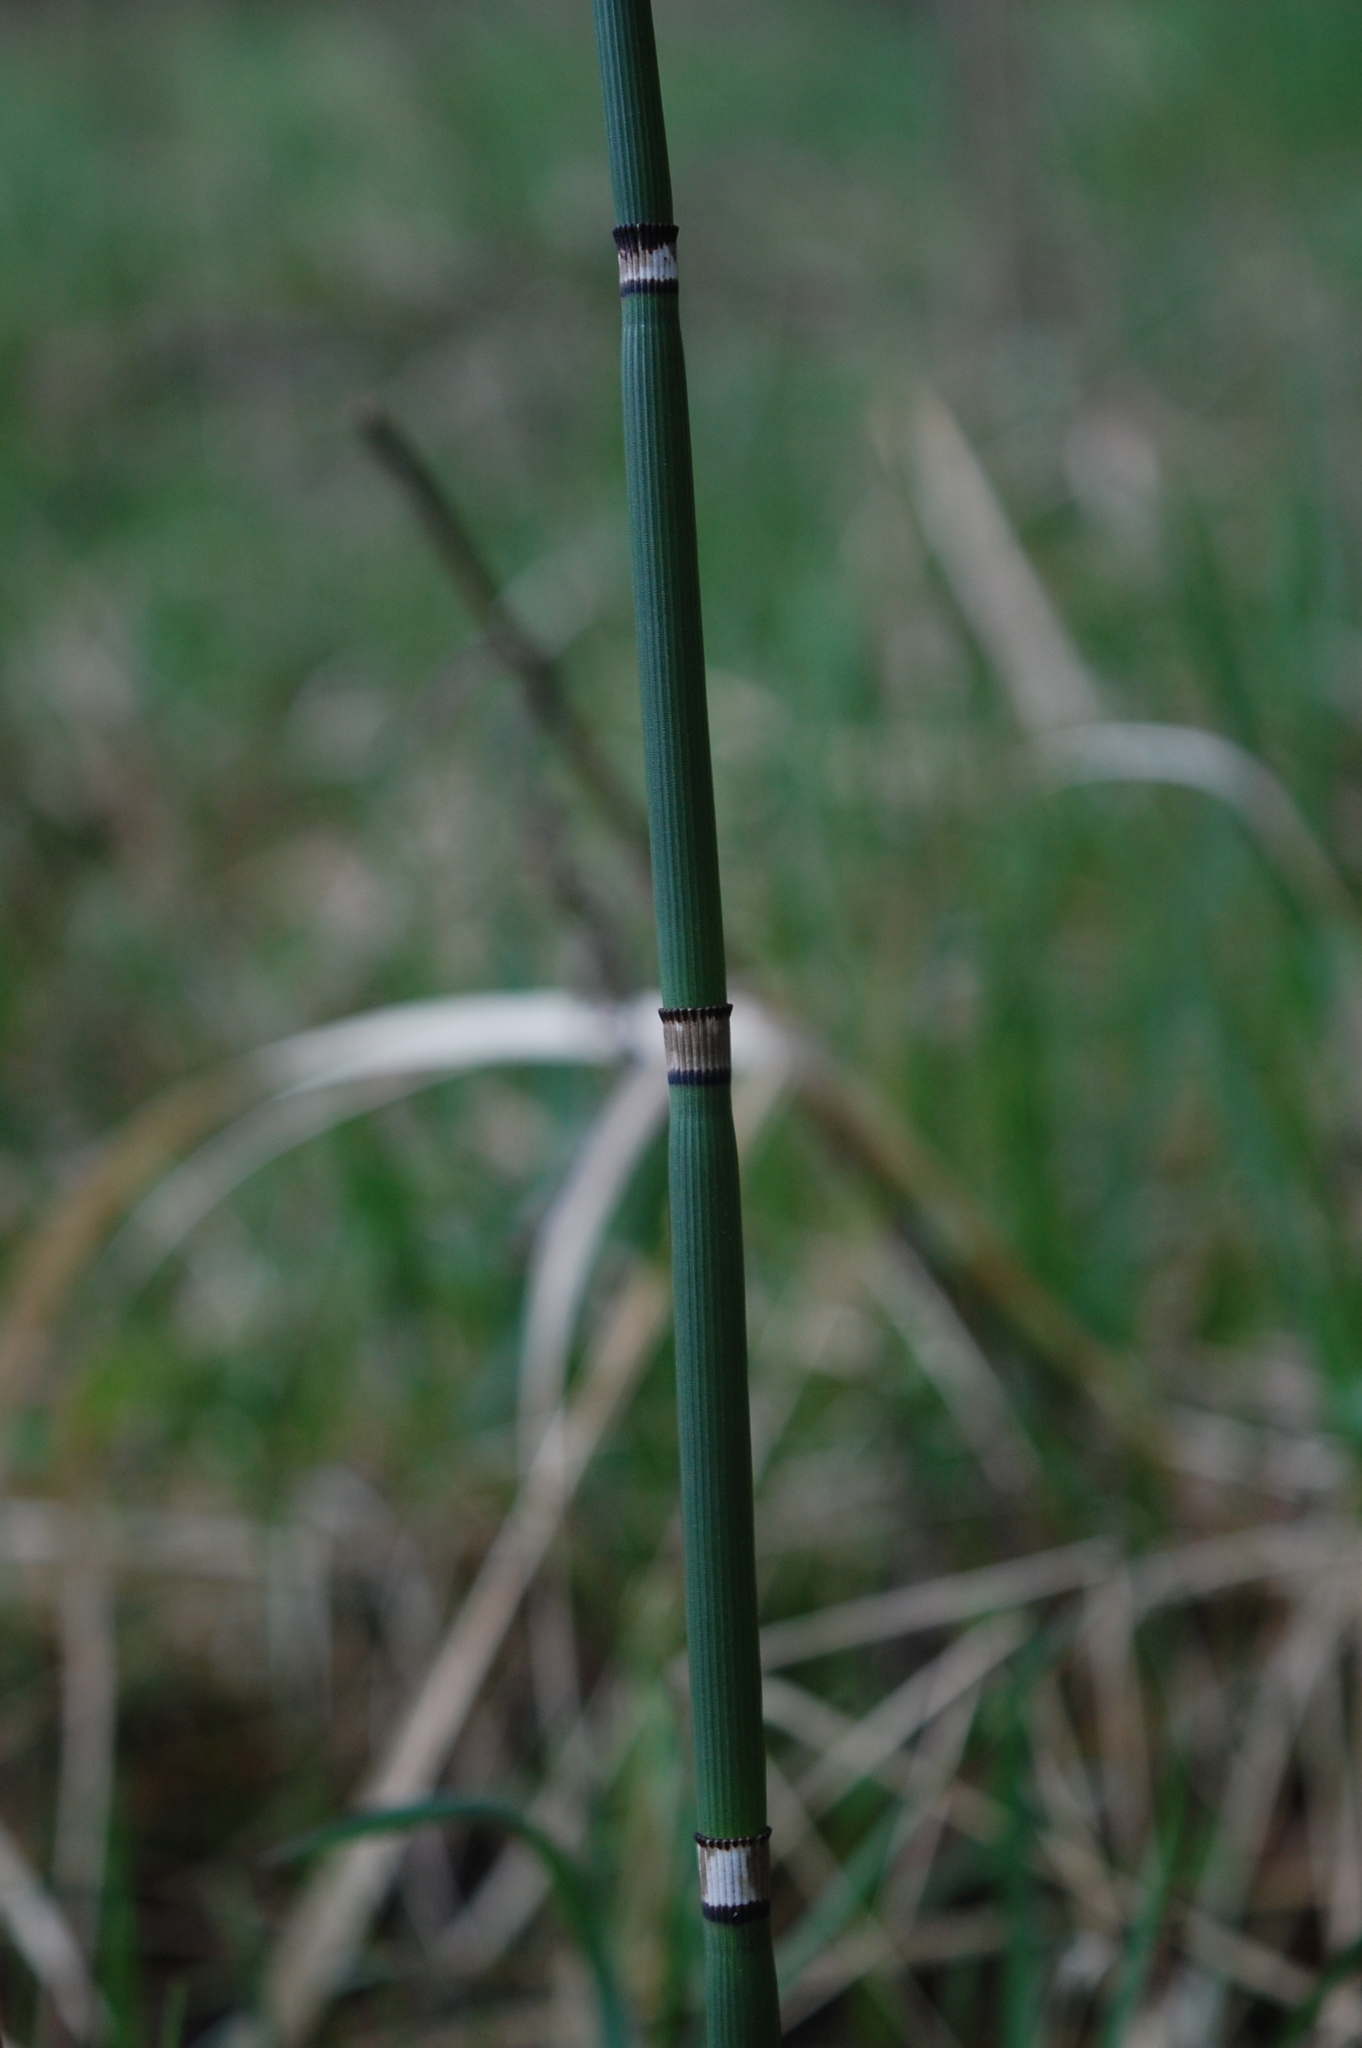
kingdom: Plantae
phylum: Tracheophyta
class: Polypodiopsida
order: Equisetales
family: Equisetaceae
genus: Equisetum
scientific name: Equisetum hyemale
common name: Rough horsetail
